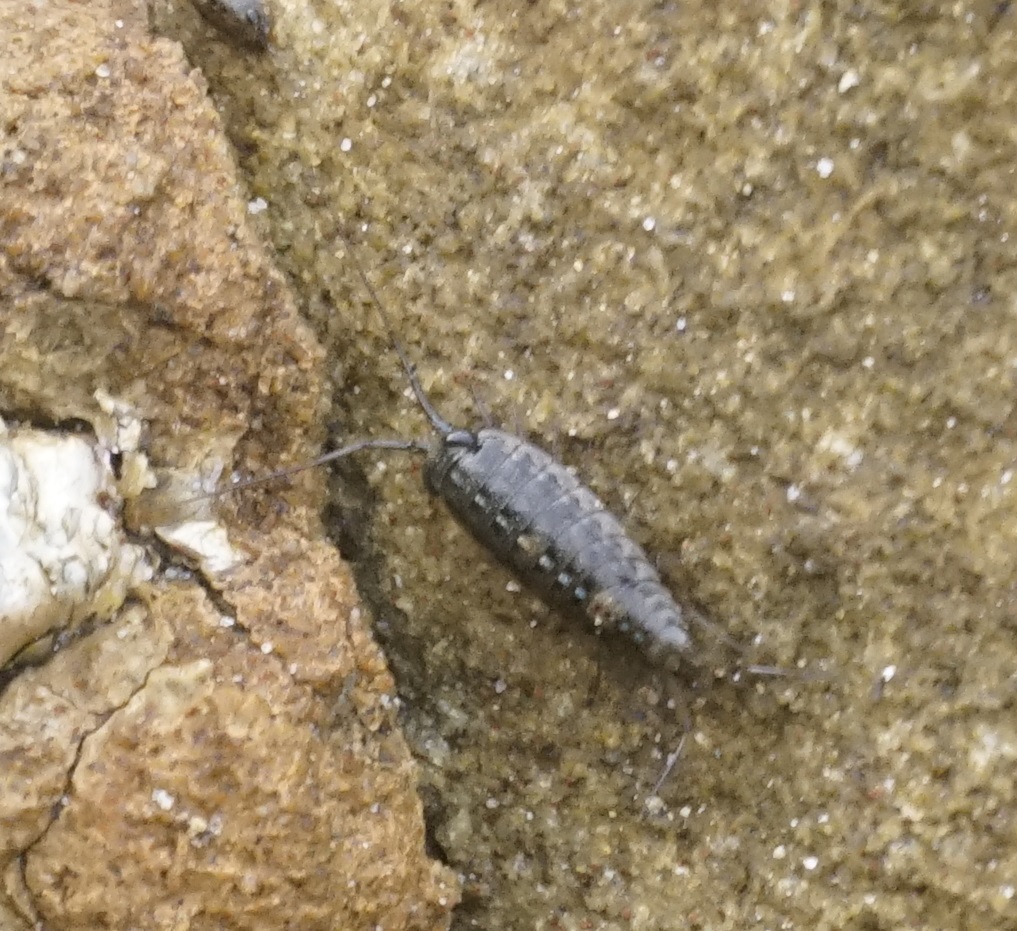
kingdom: Animalia
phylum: Arthropoda
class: Malacostraca
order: Isopoda
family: Ligiidae
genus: Ligia
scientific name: Ligia exotica
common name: Wharf roach
